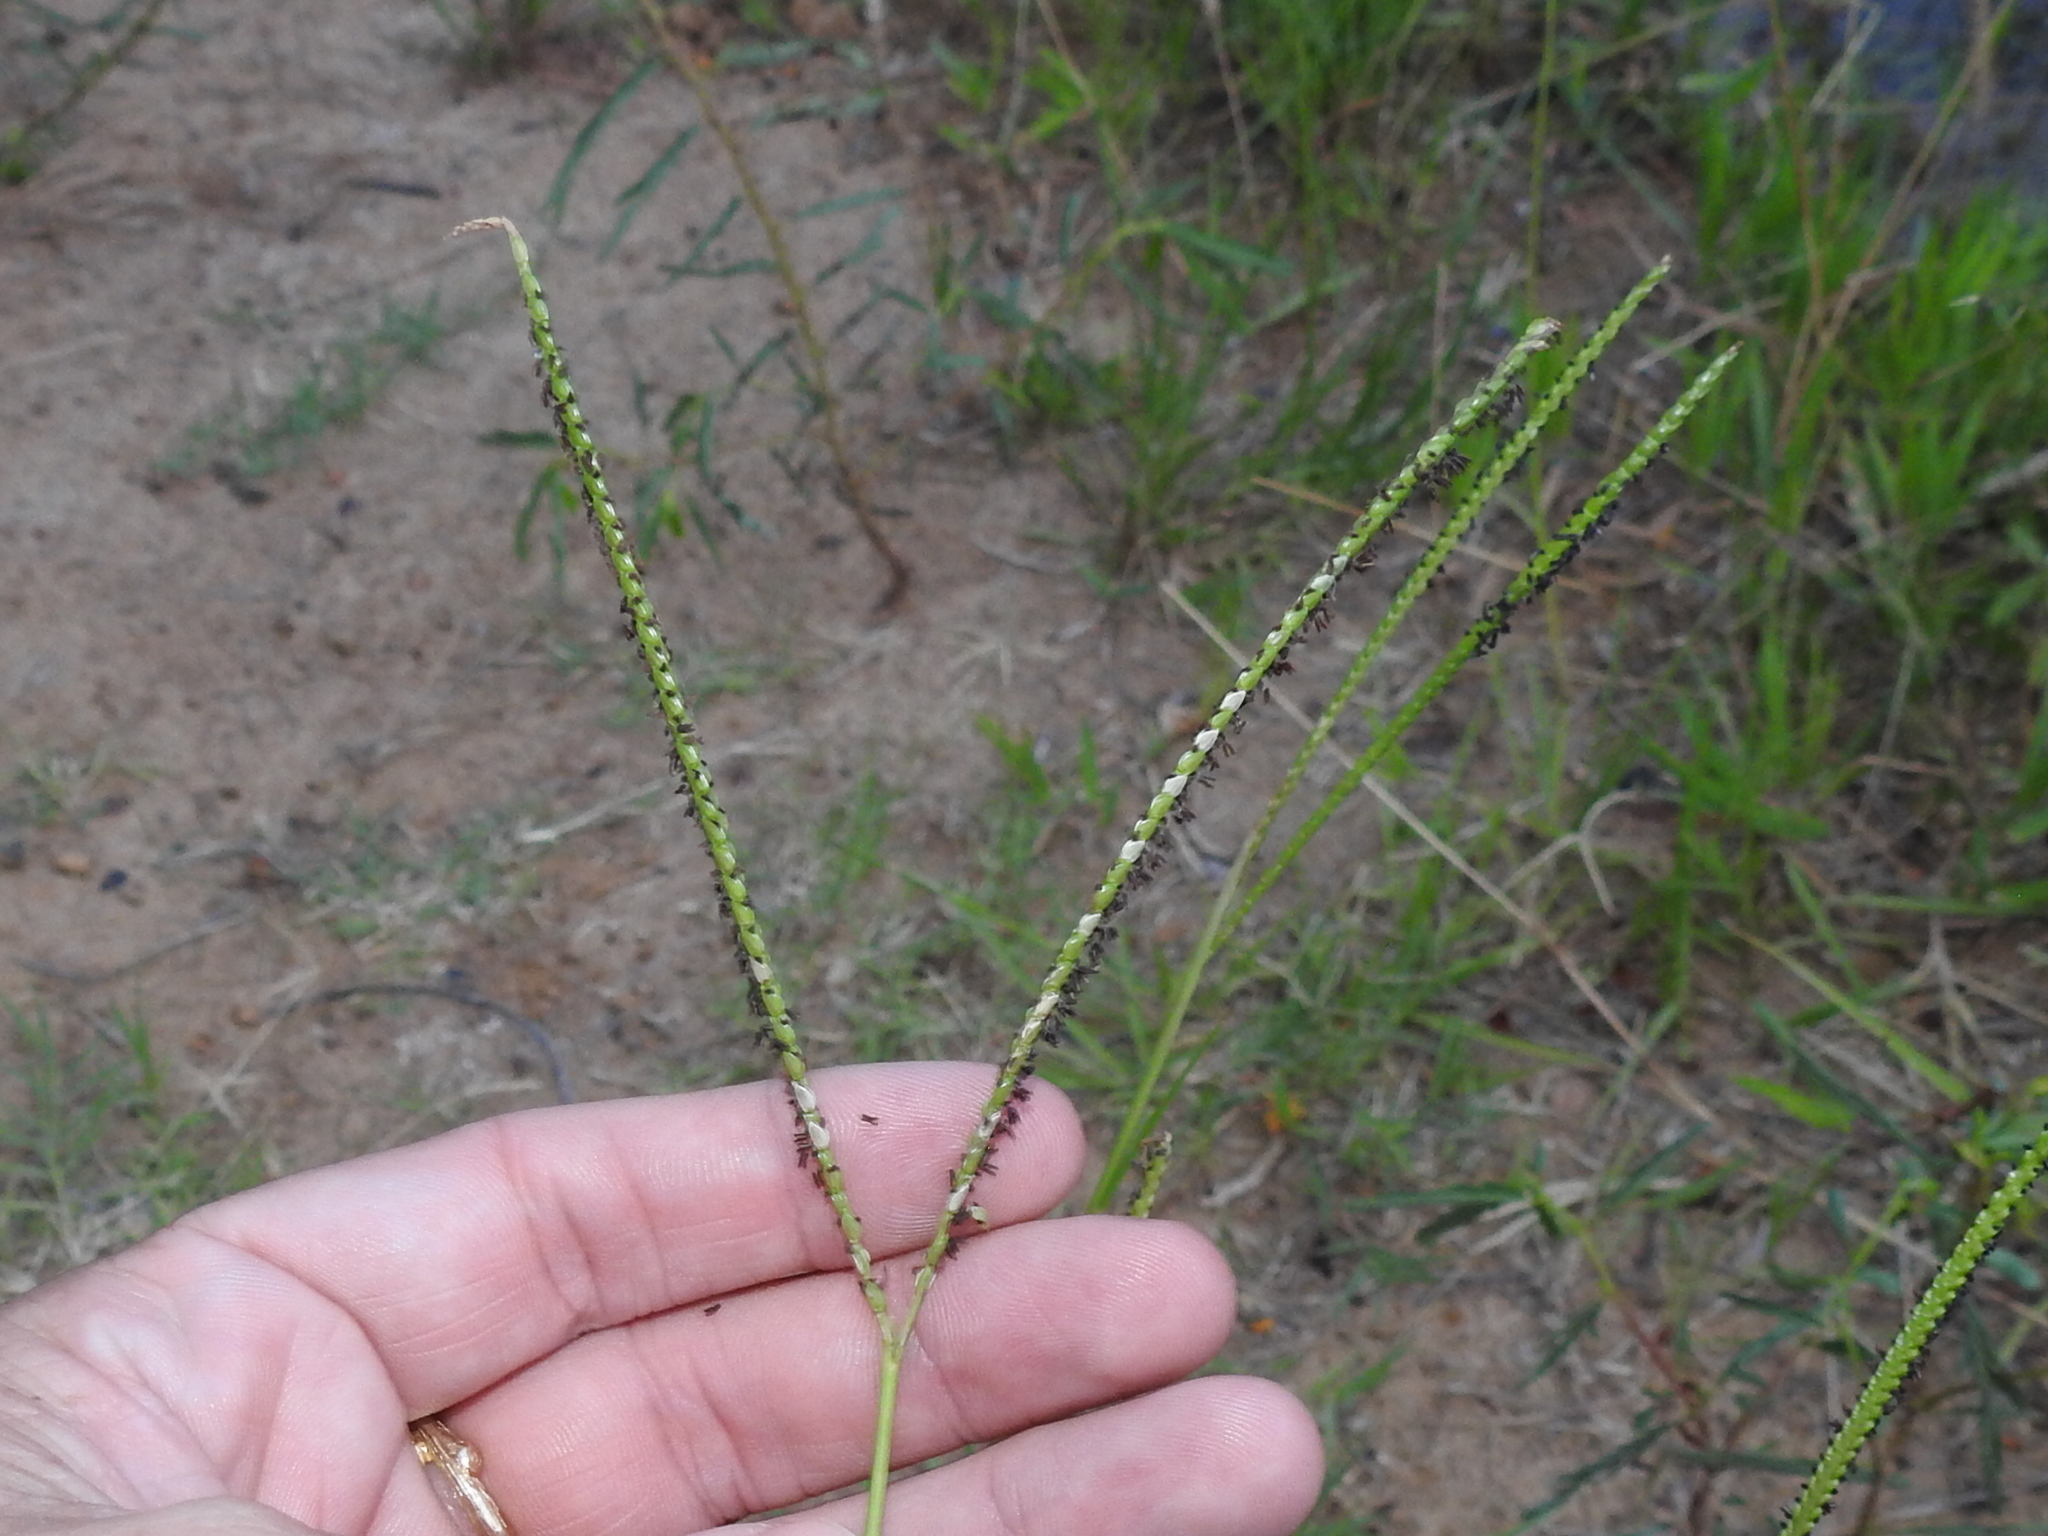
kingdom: Plantae
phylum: Tracheophyta
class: Liliopsida
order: Poales
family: Poaceae
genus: Paspalum
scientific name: Paspalum notatum
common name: Bahiagrass
